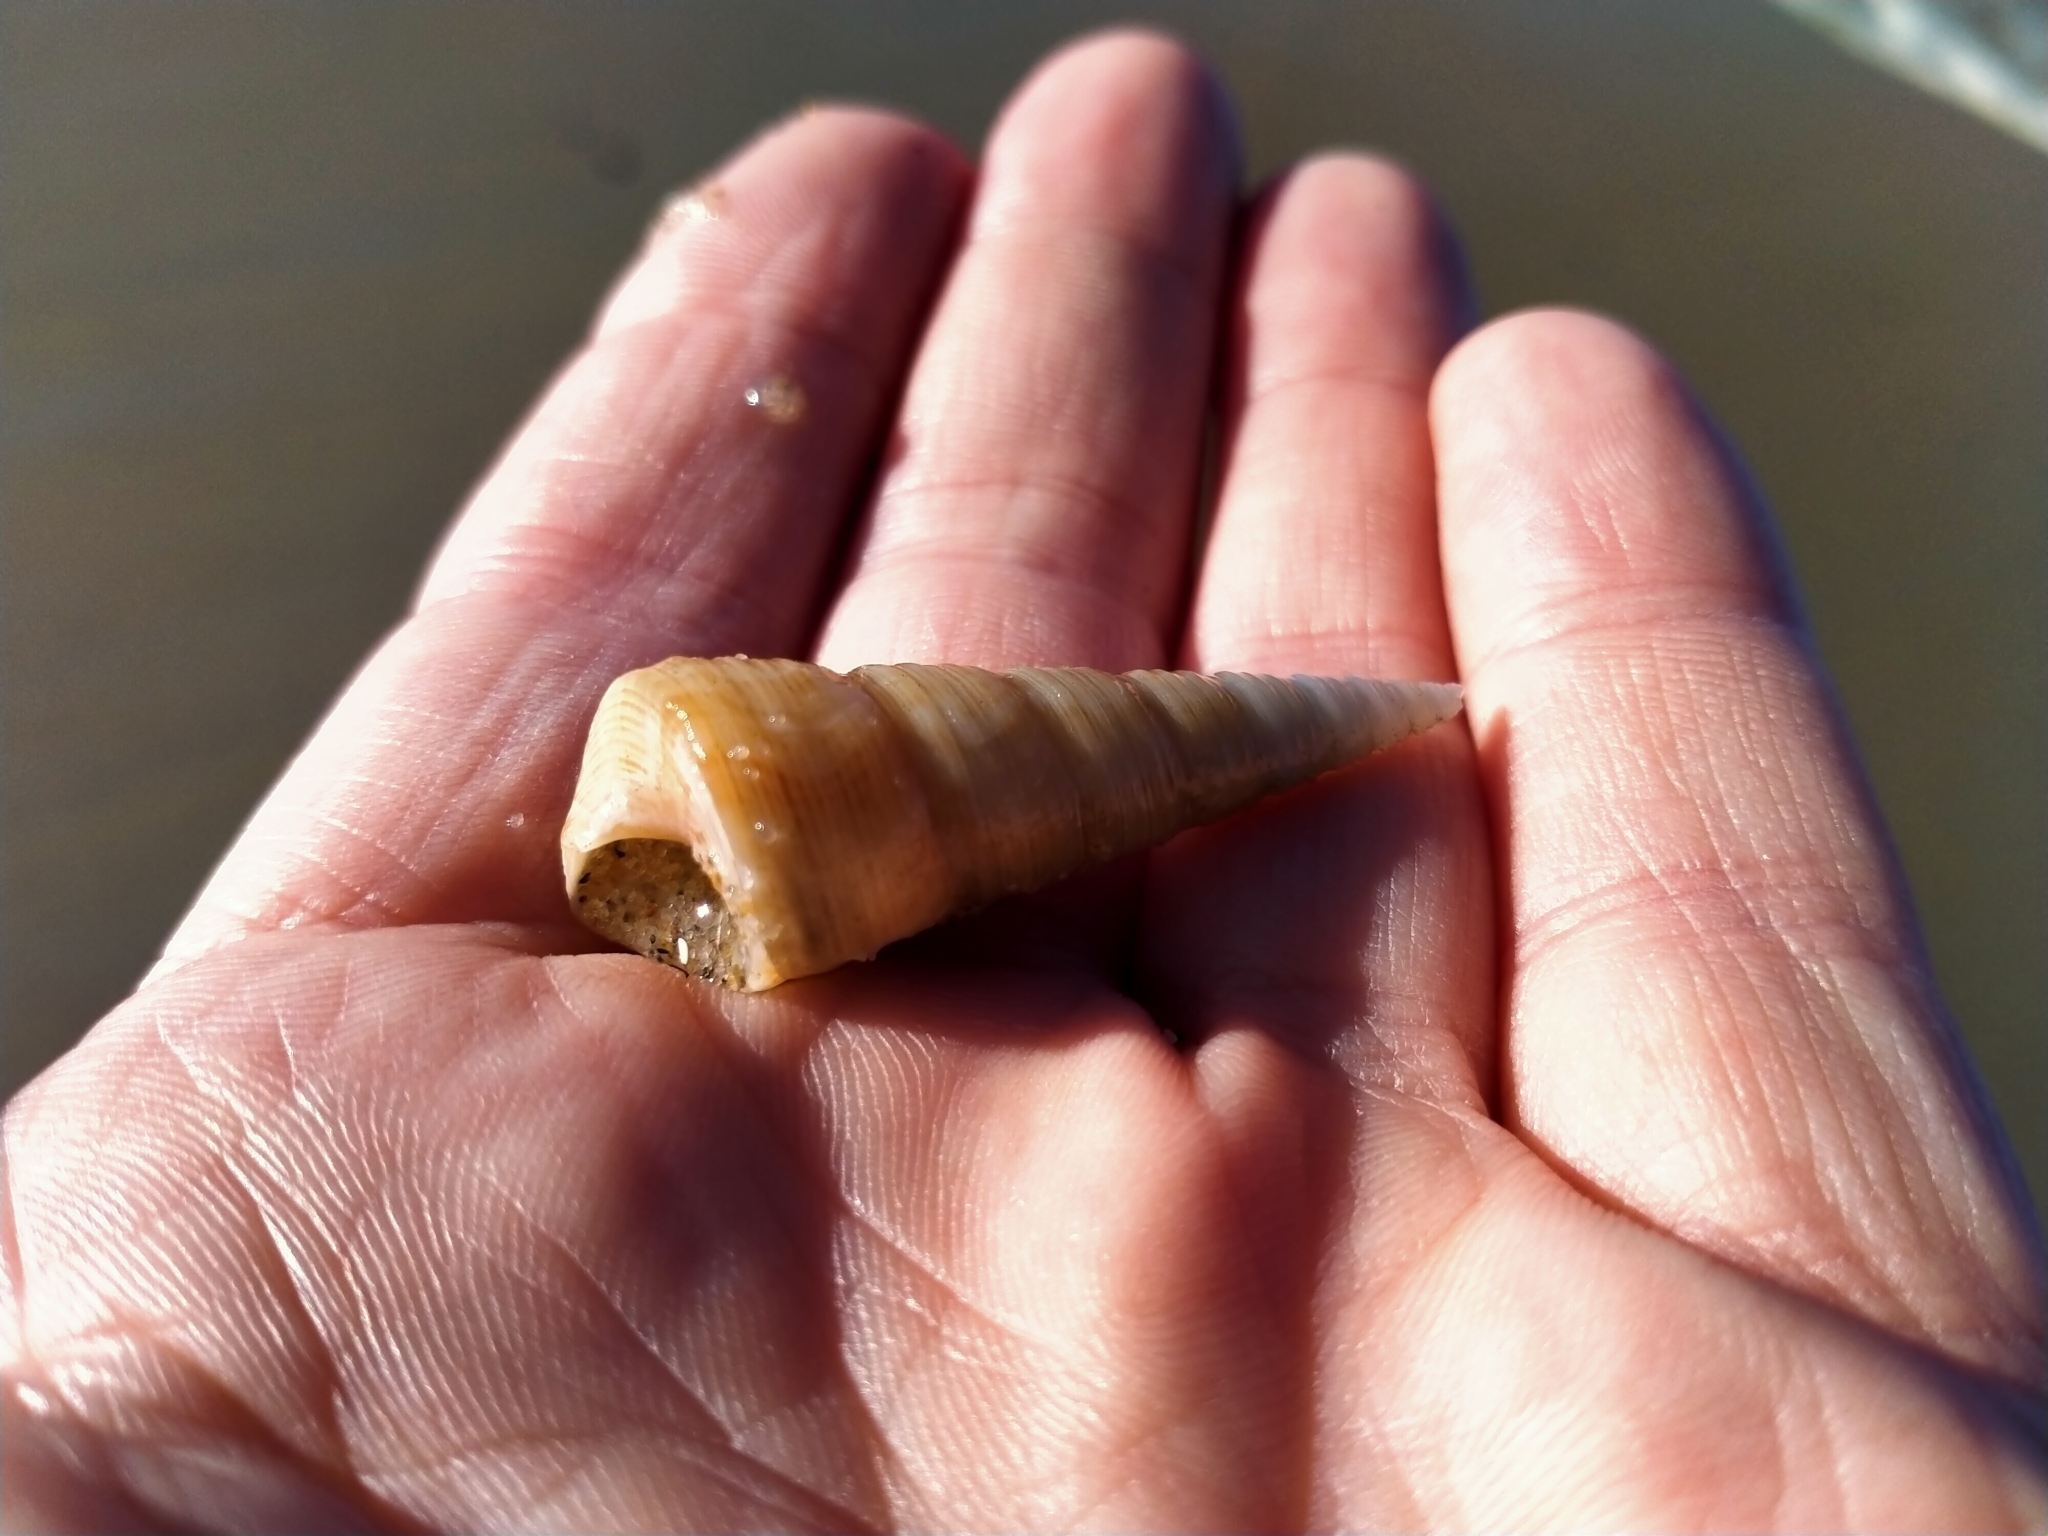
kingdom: Animalia
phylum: Mollusca
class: Gastropoda
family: Turritellidae
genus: Maoricolpus
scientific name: Maoricolpus roseus
